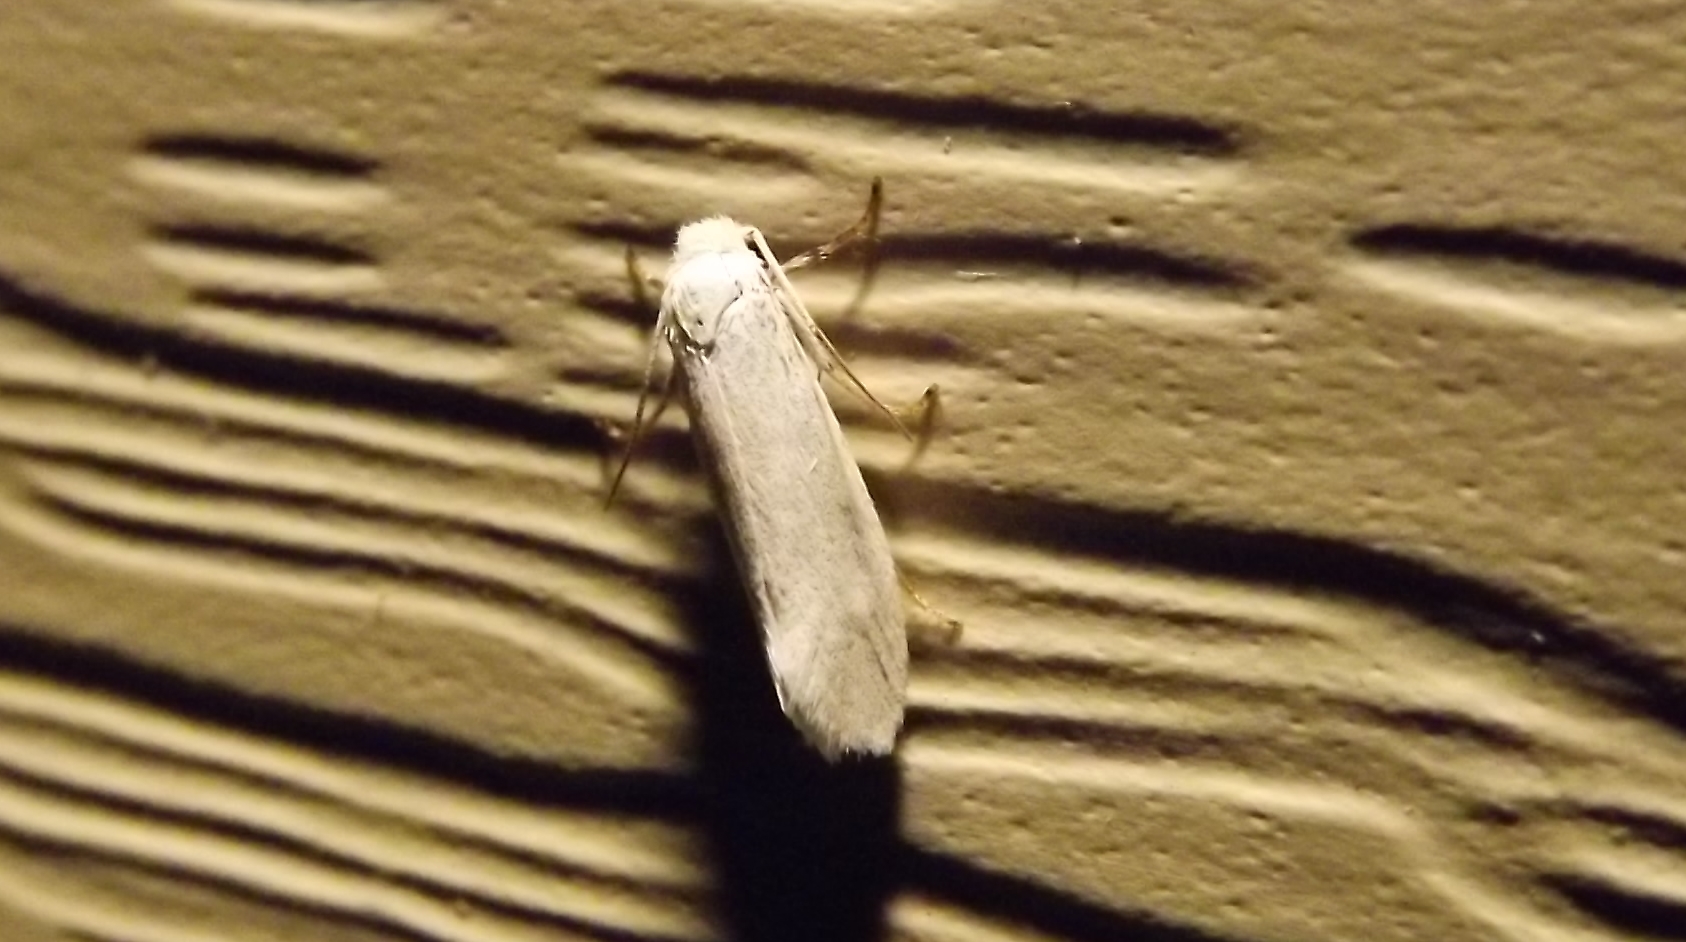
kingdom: Animalia
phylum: Arthropoda
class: Insecta
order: Lepidoptera
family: Prodoxidae
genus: Prodoxus
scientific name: Prodoxus decipiens
